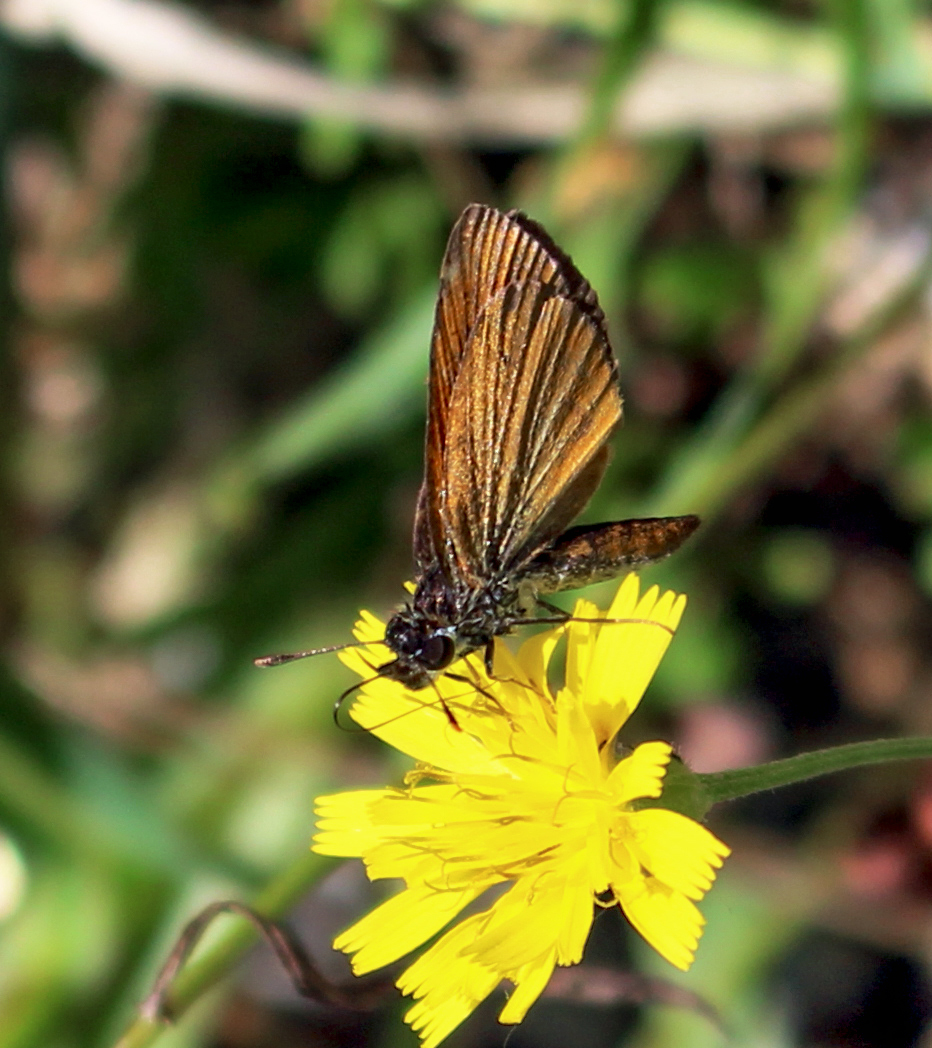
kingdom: Animalia
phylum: Arthropoda
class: Insecta
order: Lepidoptera
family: Hesperiidae
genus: Ancyloxypha
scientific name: Ancyloxypha numitor
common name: Least skipper
